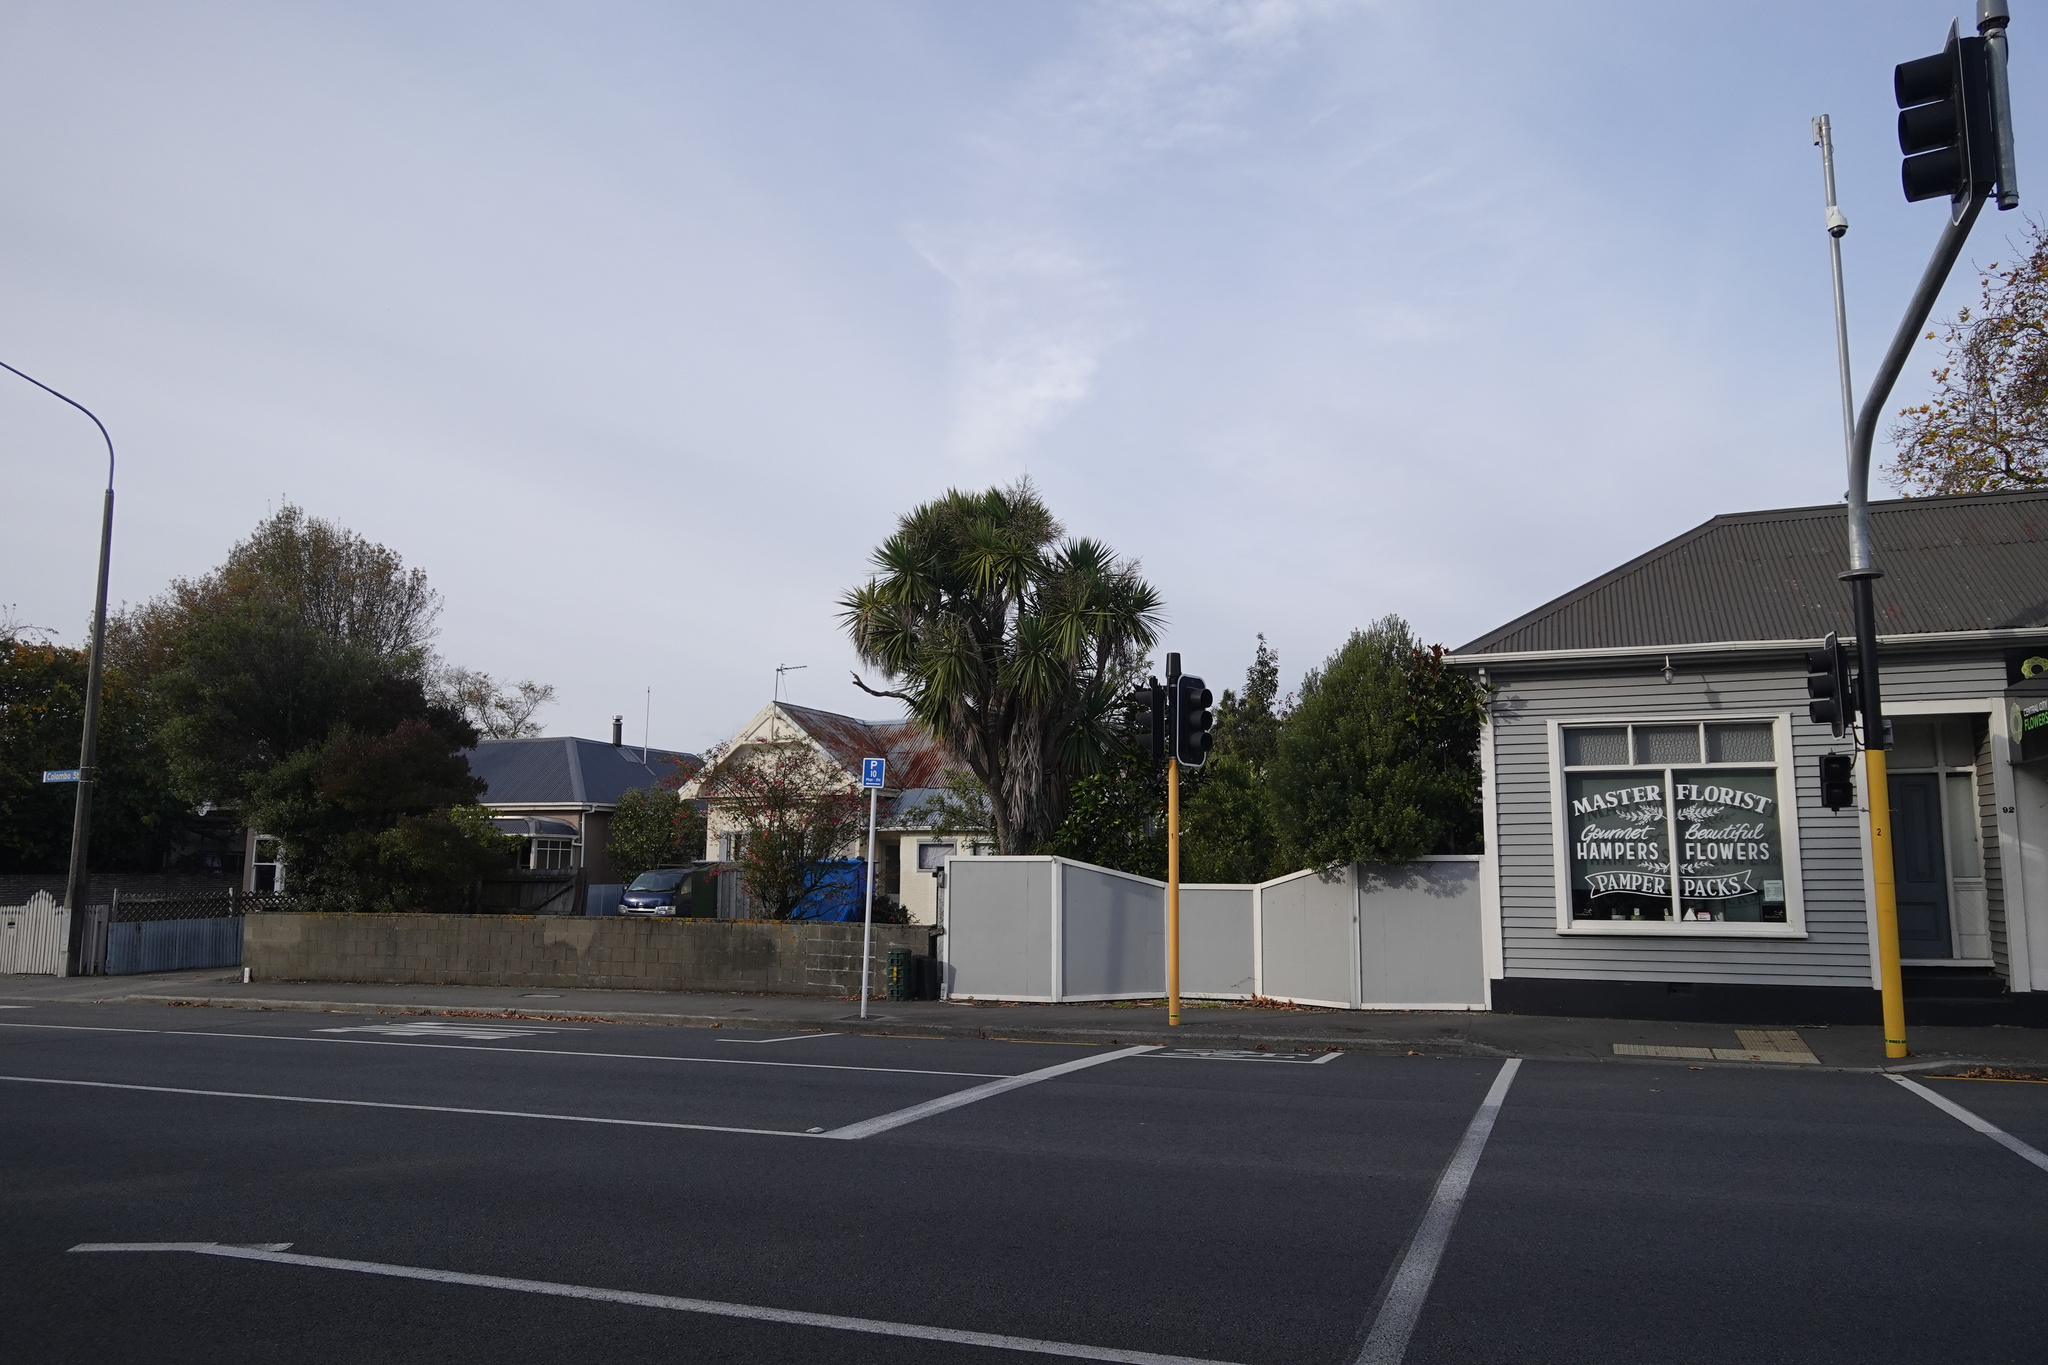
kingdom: Plantae
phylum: Tracheophyta
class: Liliopsida
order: Asparagales
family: Asparagaceae
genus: Cordyline
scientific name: Cordyline australis
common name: Cabbage-palm
